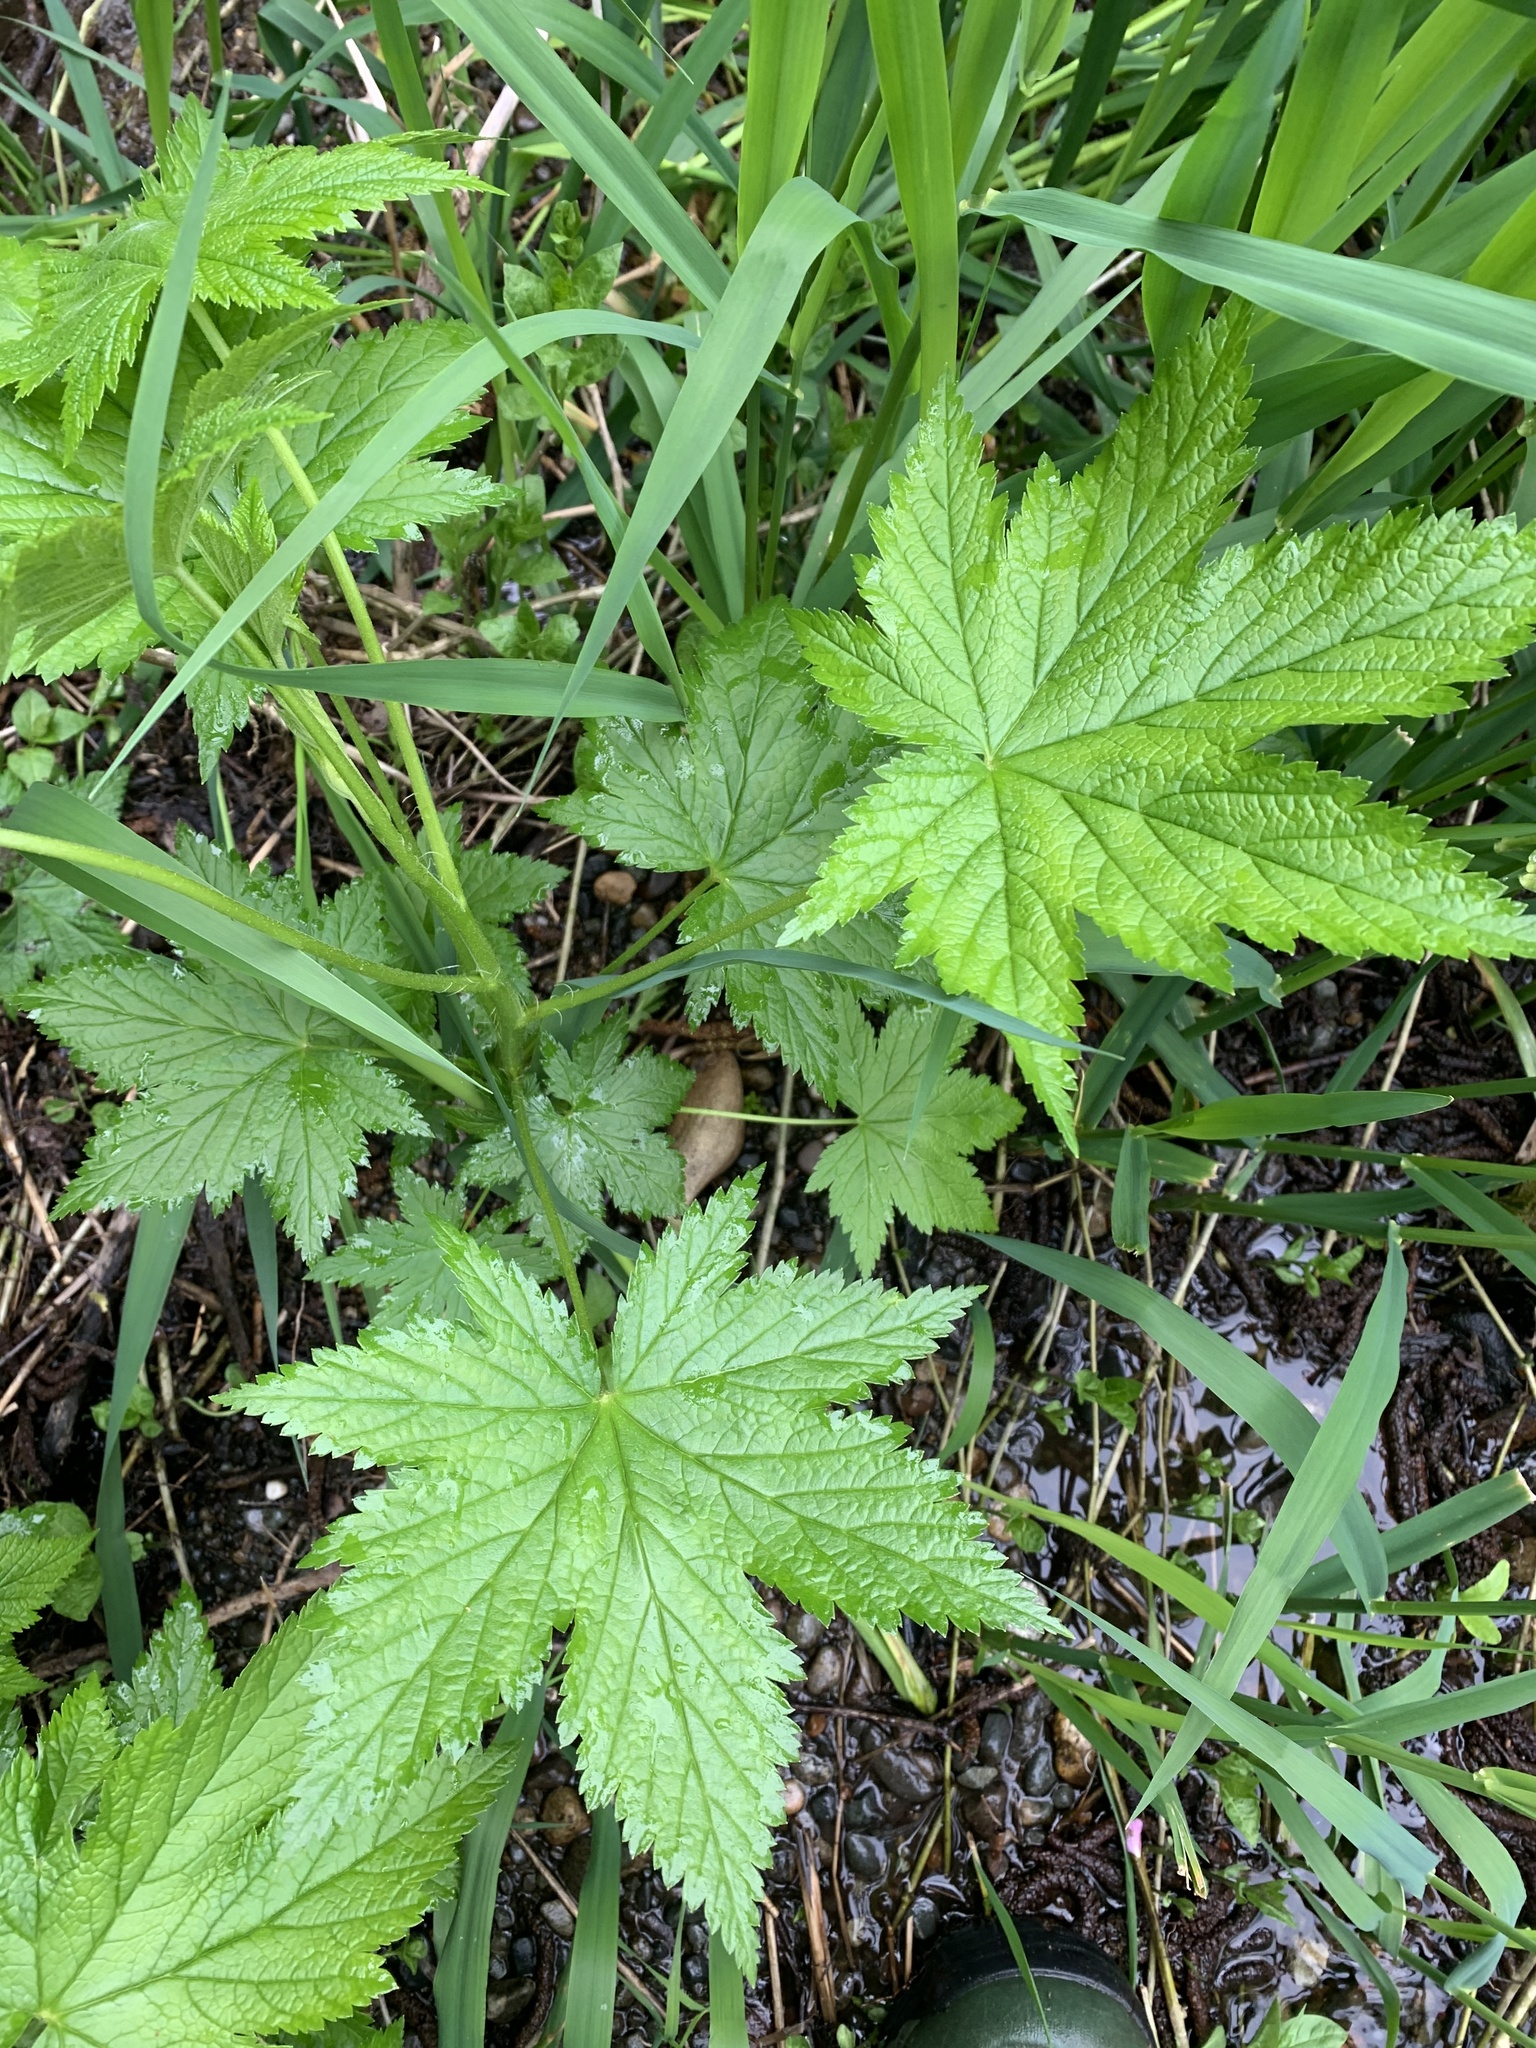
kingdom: Plantae
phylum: Tracheophyta
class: Magnoliopsida
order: Saxifragales
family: Grossulariaceae
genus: Ribes
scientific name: Ribes bracteosum
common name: California black currant
